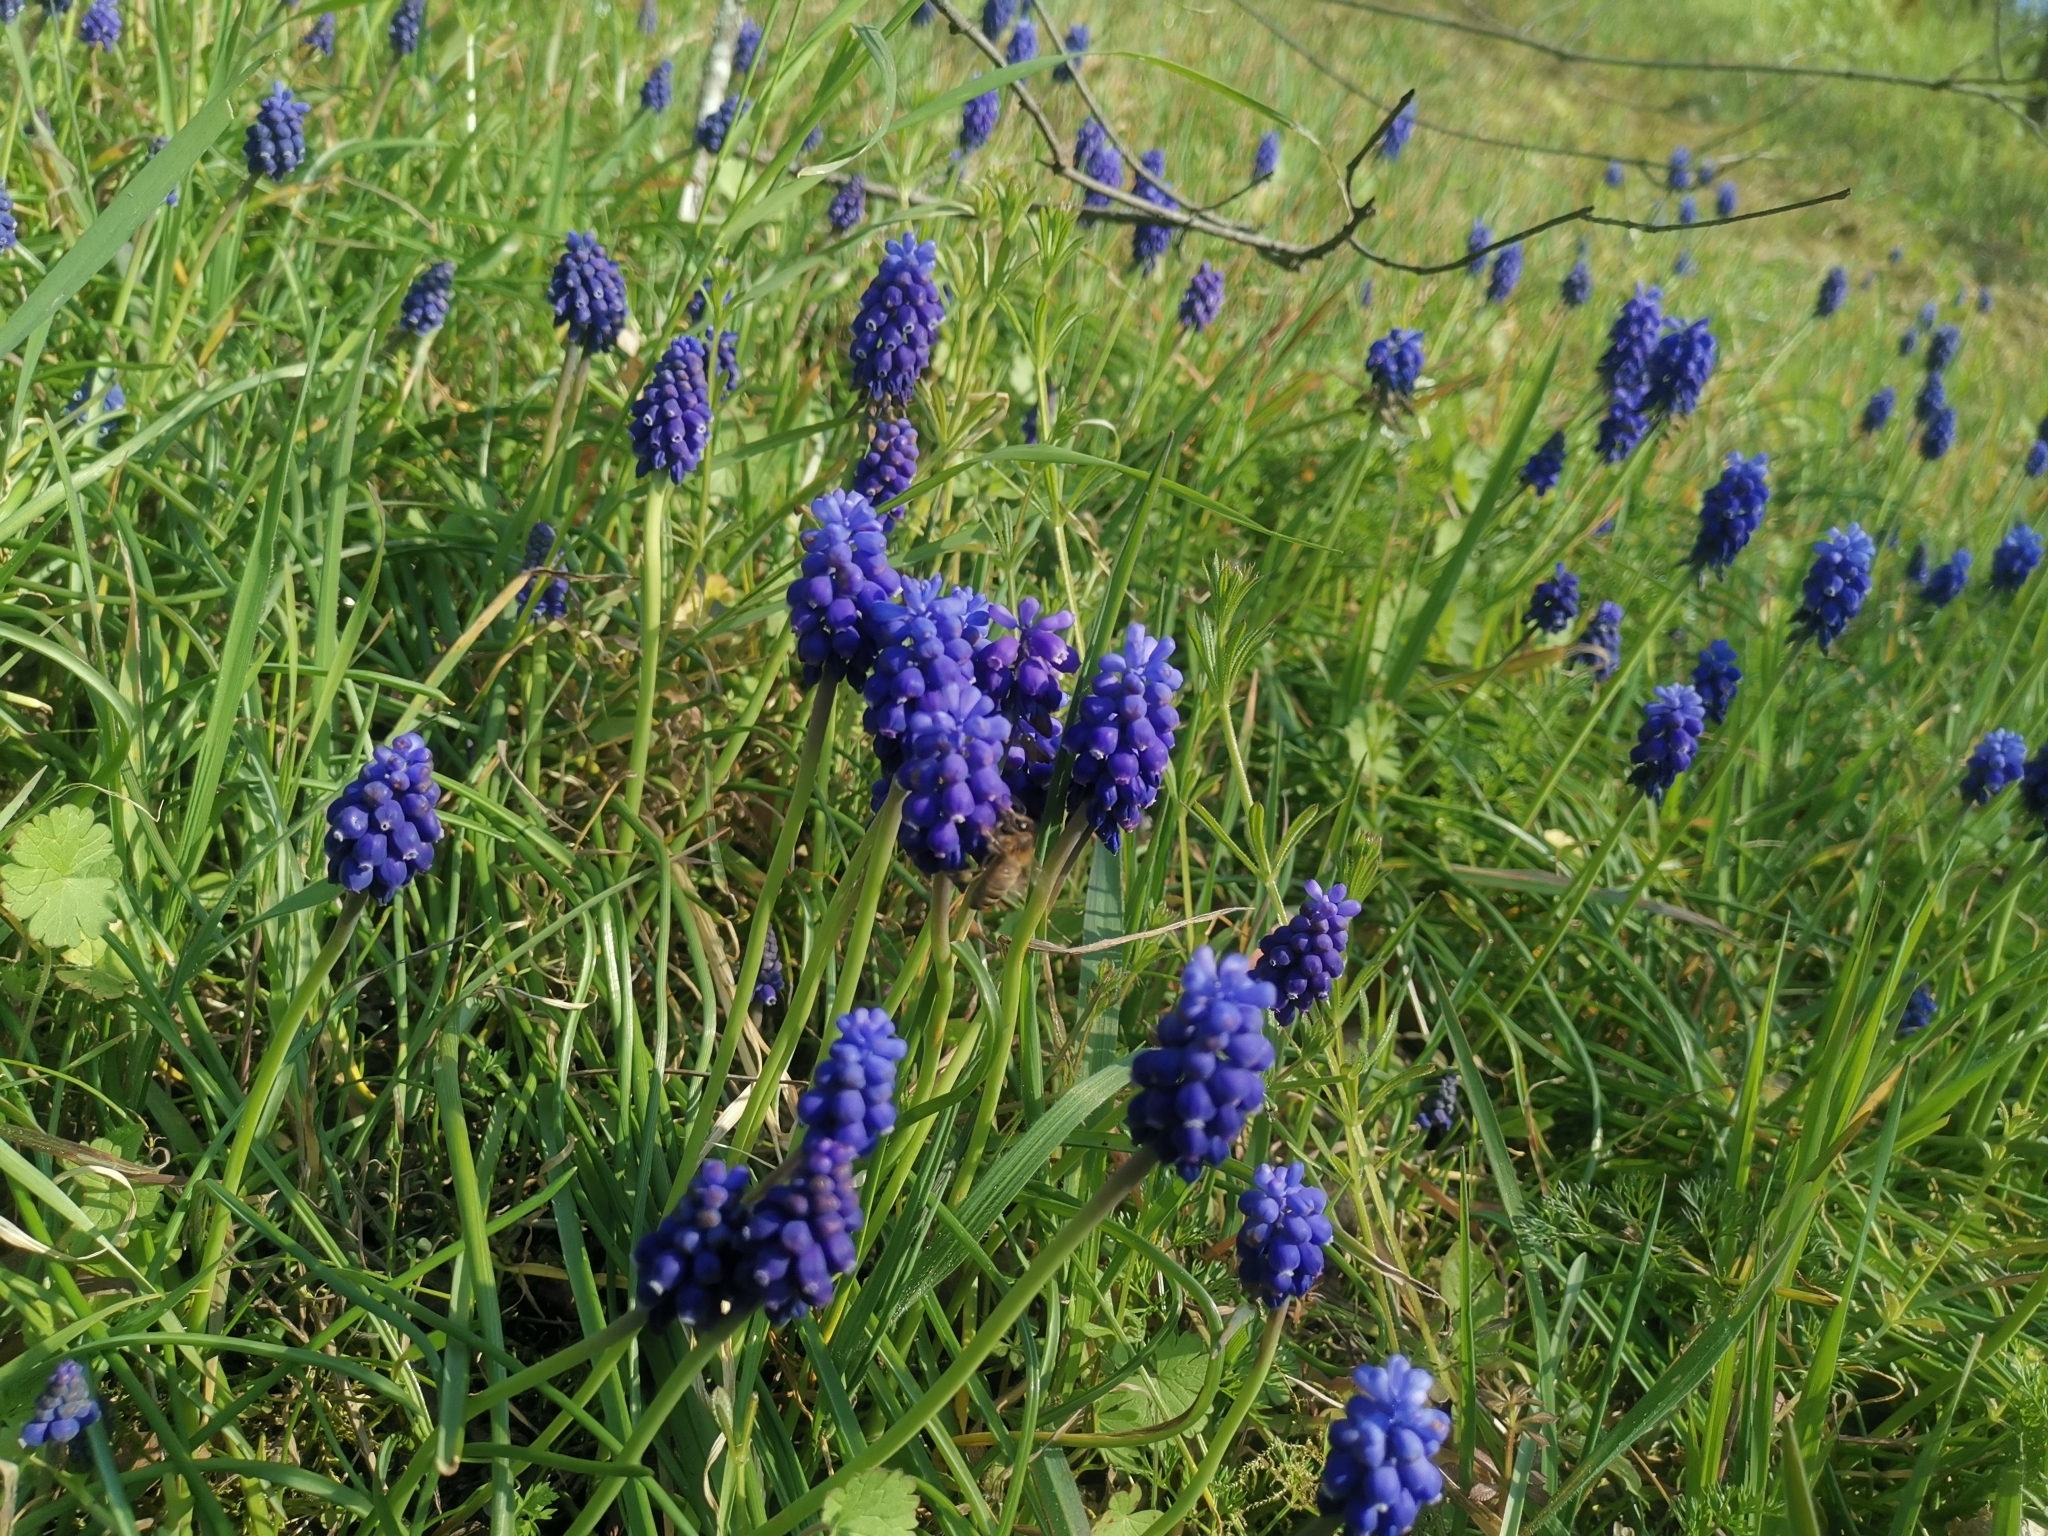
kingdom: Plantae
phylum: Tracheophyta
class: Liliopsida
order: Asparagales
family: Asparagaceae
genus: Muscari
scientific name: Muscari neglectum
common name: Grape-hyacinth
